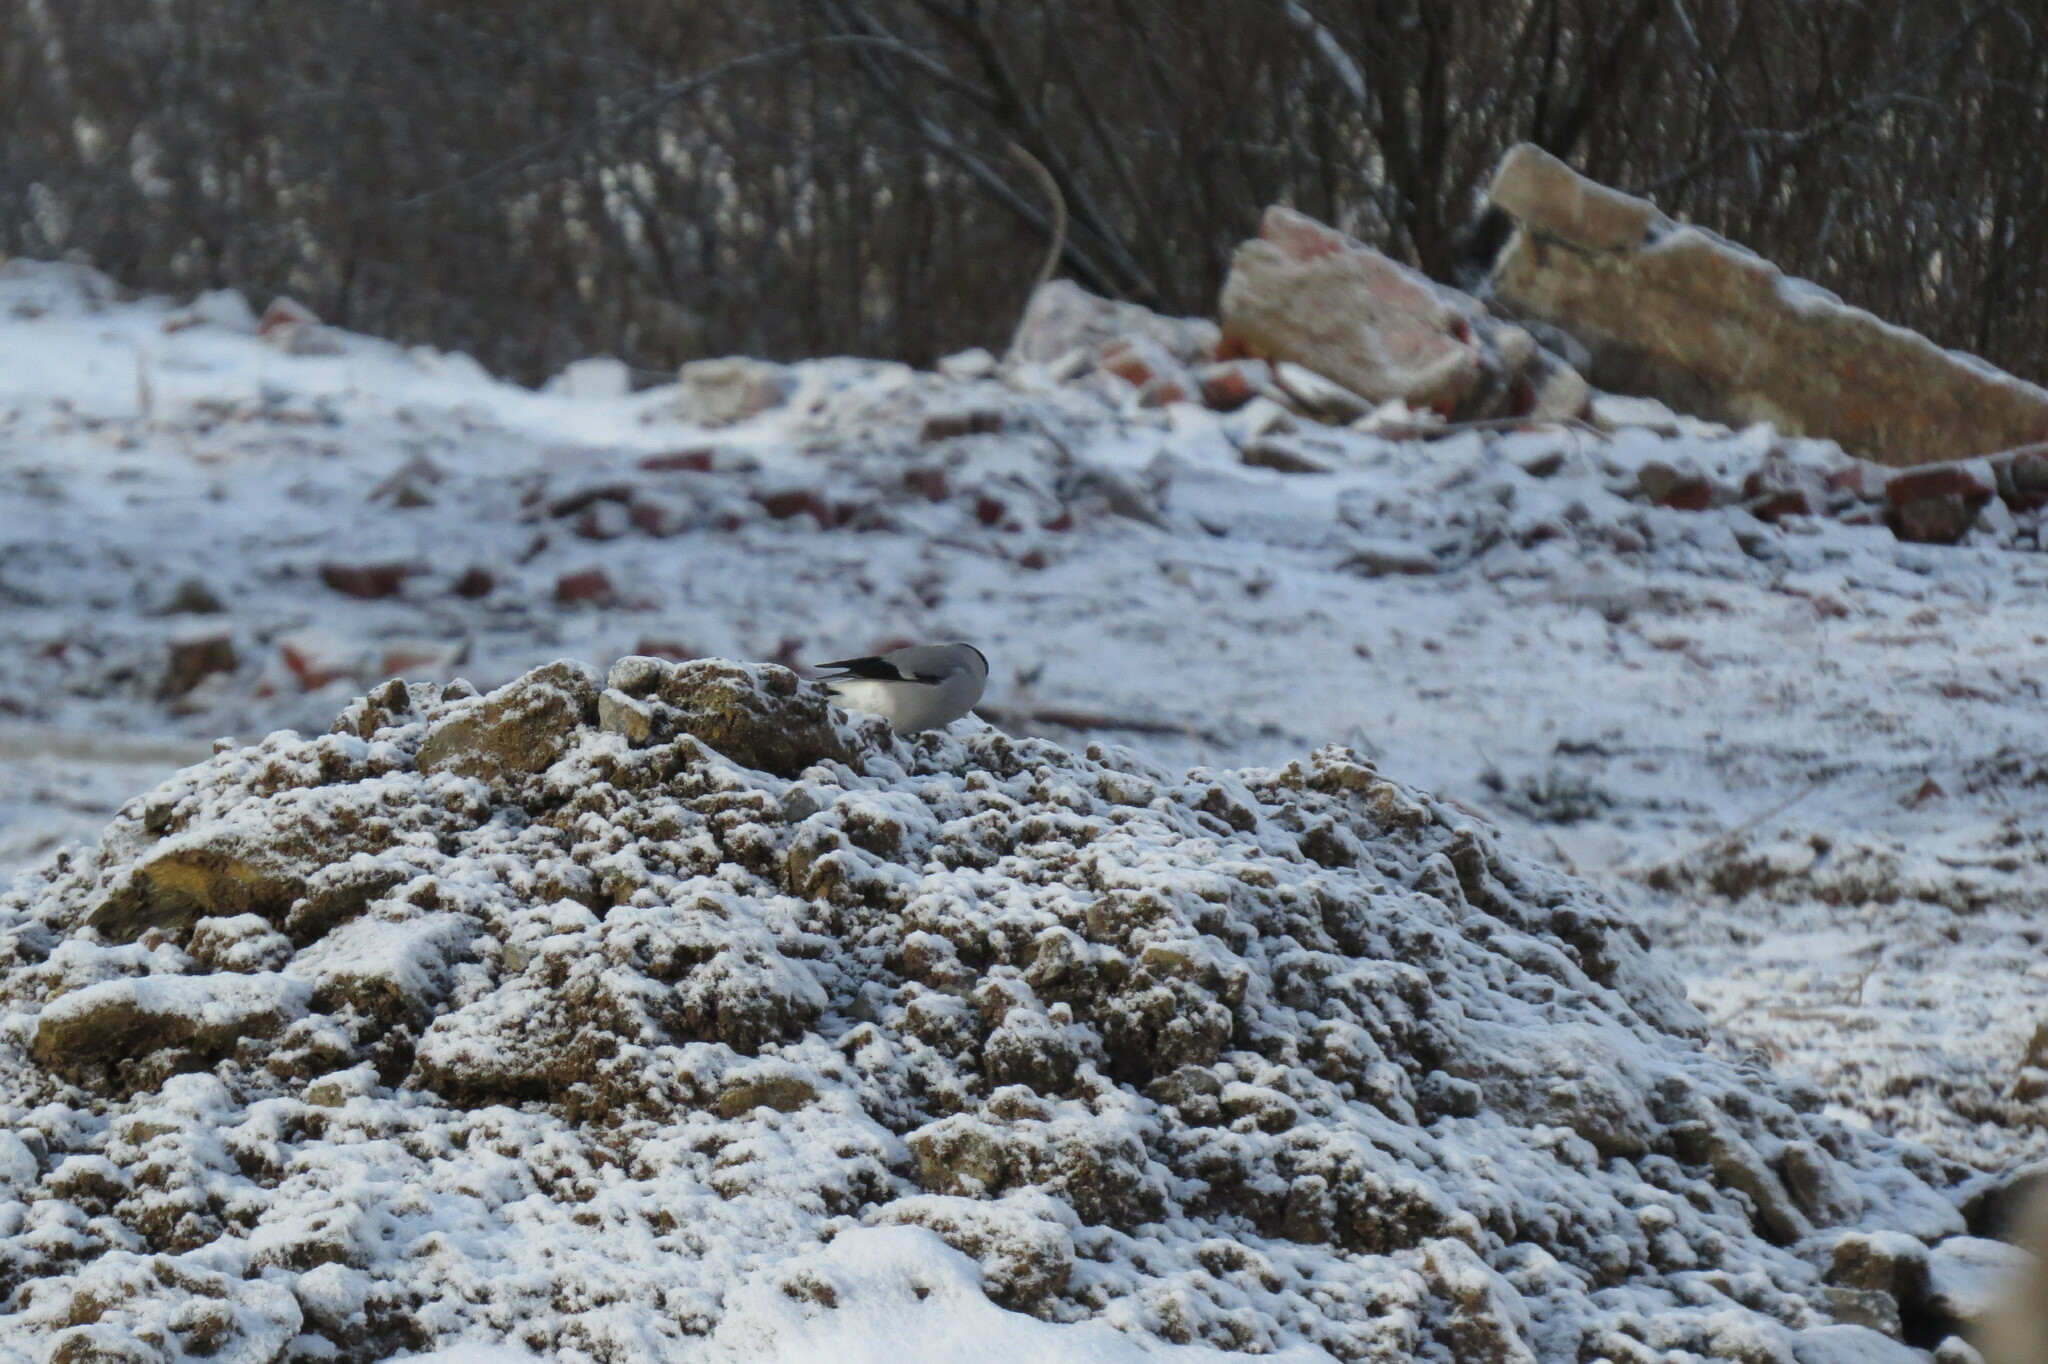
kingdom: Animalia
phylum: Chordata
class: Aves
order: Passeriformes
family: Fringillidae
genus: Pyrrhula
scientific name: Pyrrhula pyrrhula
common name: Eurasian bullfinch
